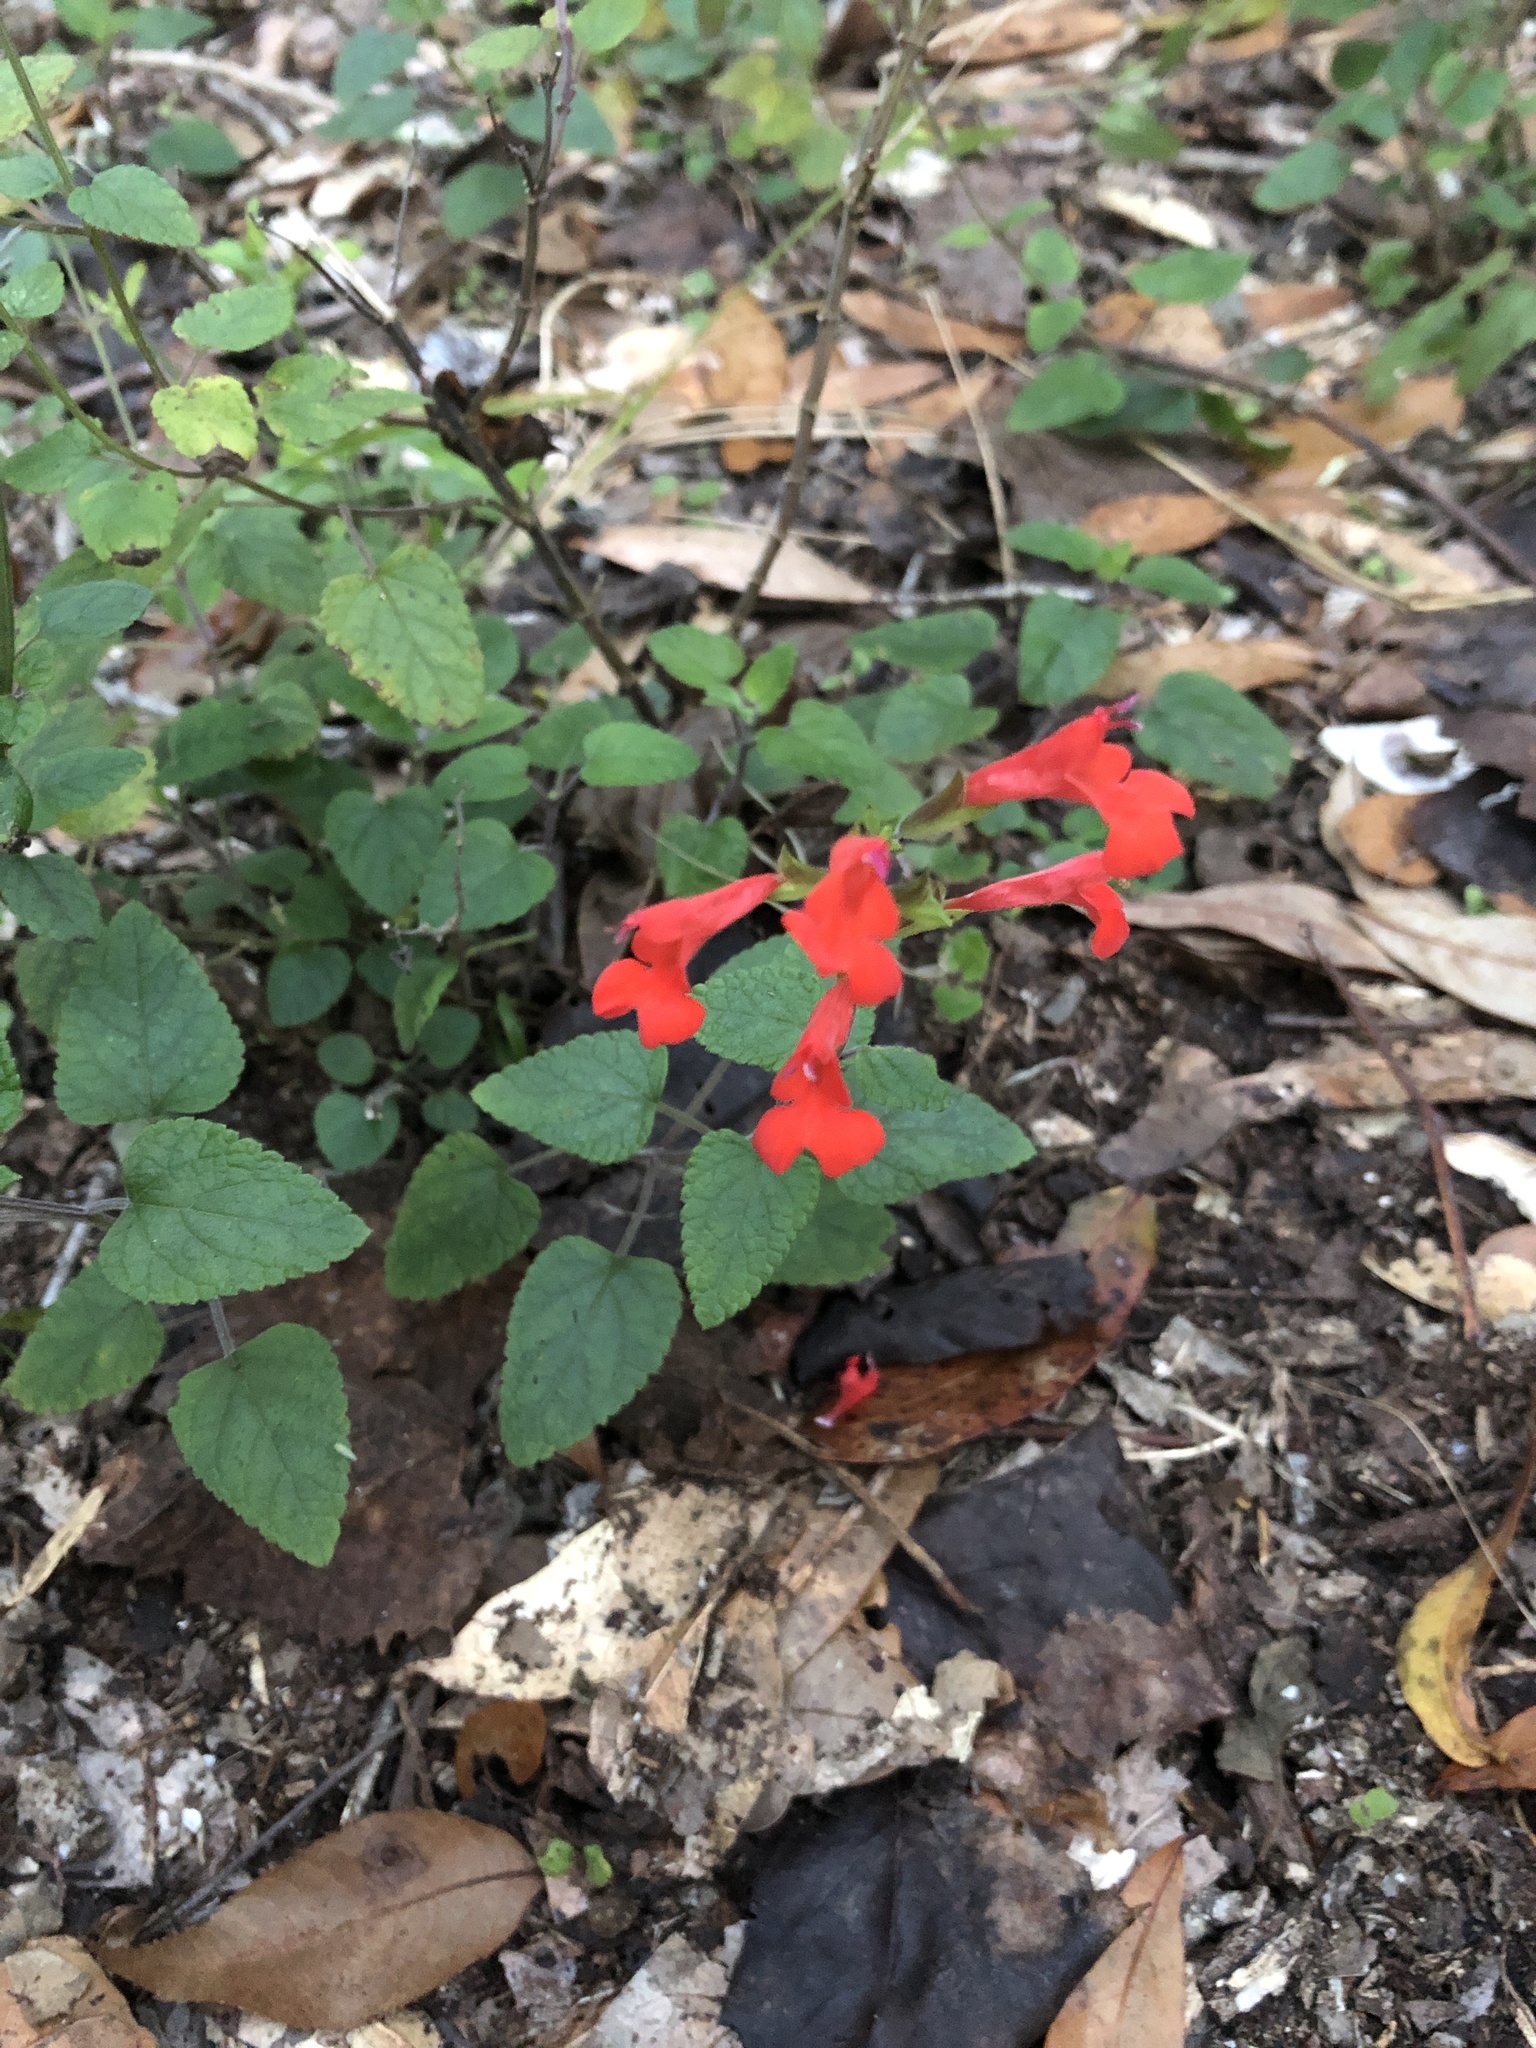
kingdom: Plantae
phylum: Tracheophyta
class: Magnoliopsida
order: Lamiales
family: Lamiaceae
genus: Salvia
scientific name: Salvia coccinea
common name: Blood sage
